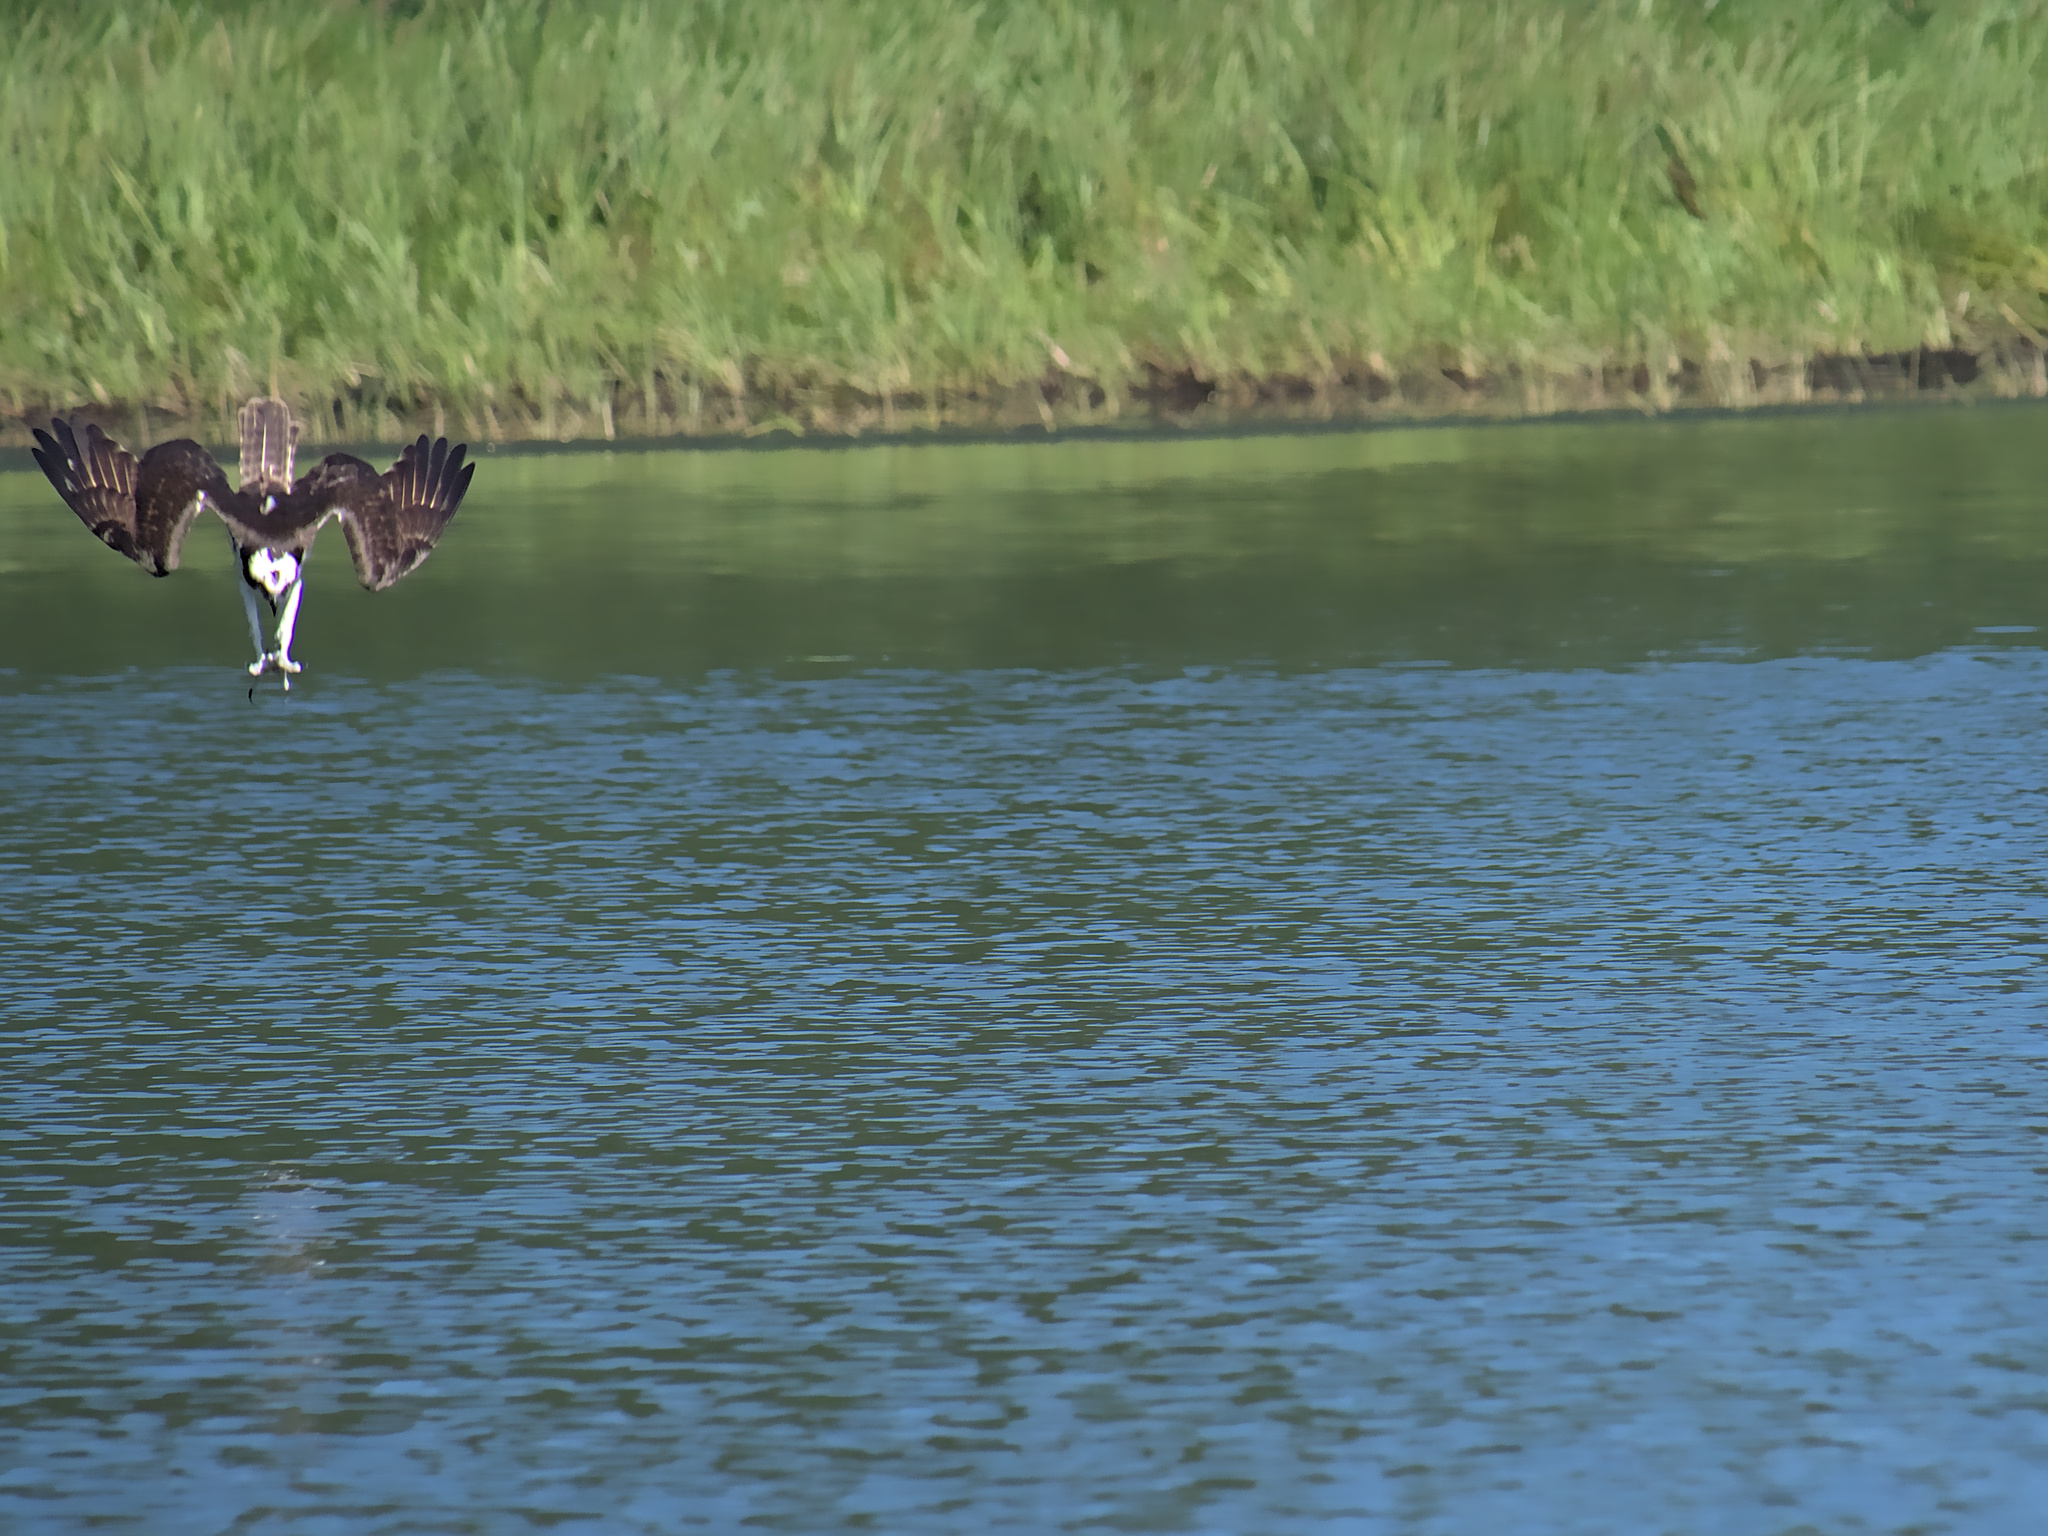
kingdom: Animalia
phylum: Chordata
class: Aves
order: Accipitriformes
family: Pandionidae
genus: Pandion
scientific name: Pandion haliaetus
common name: Osprey
